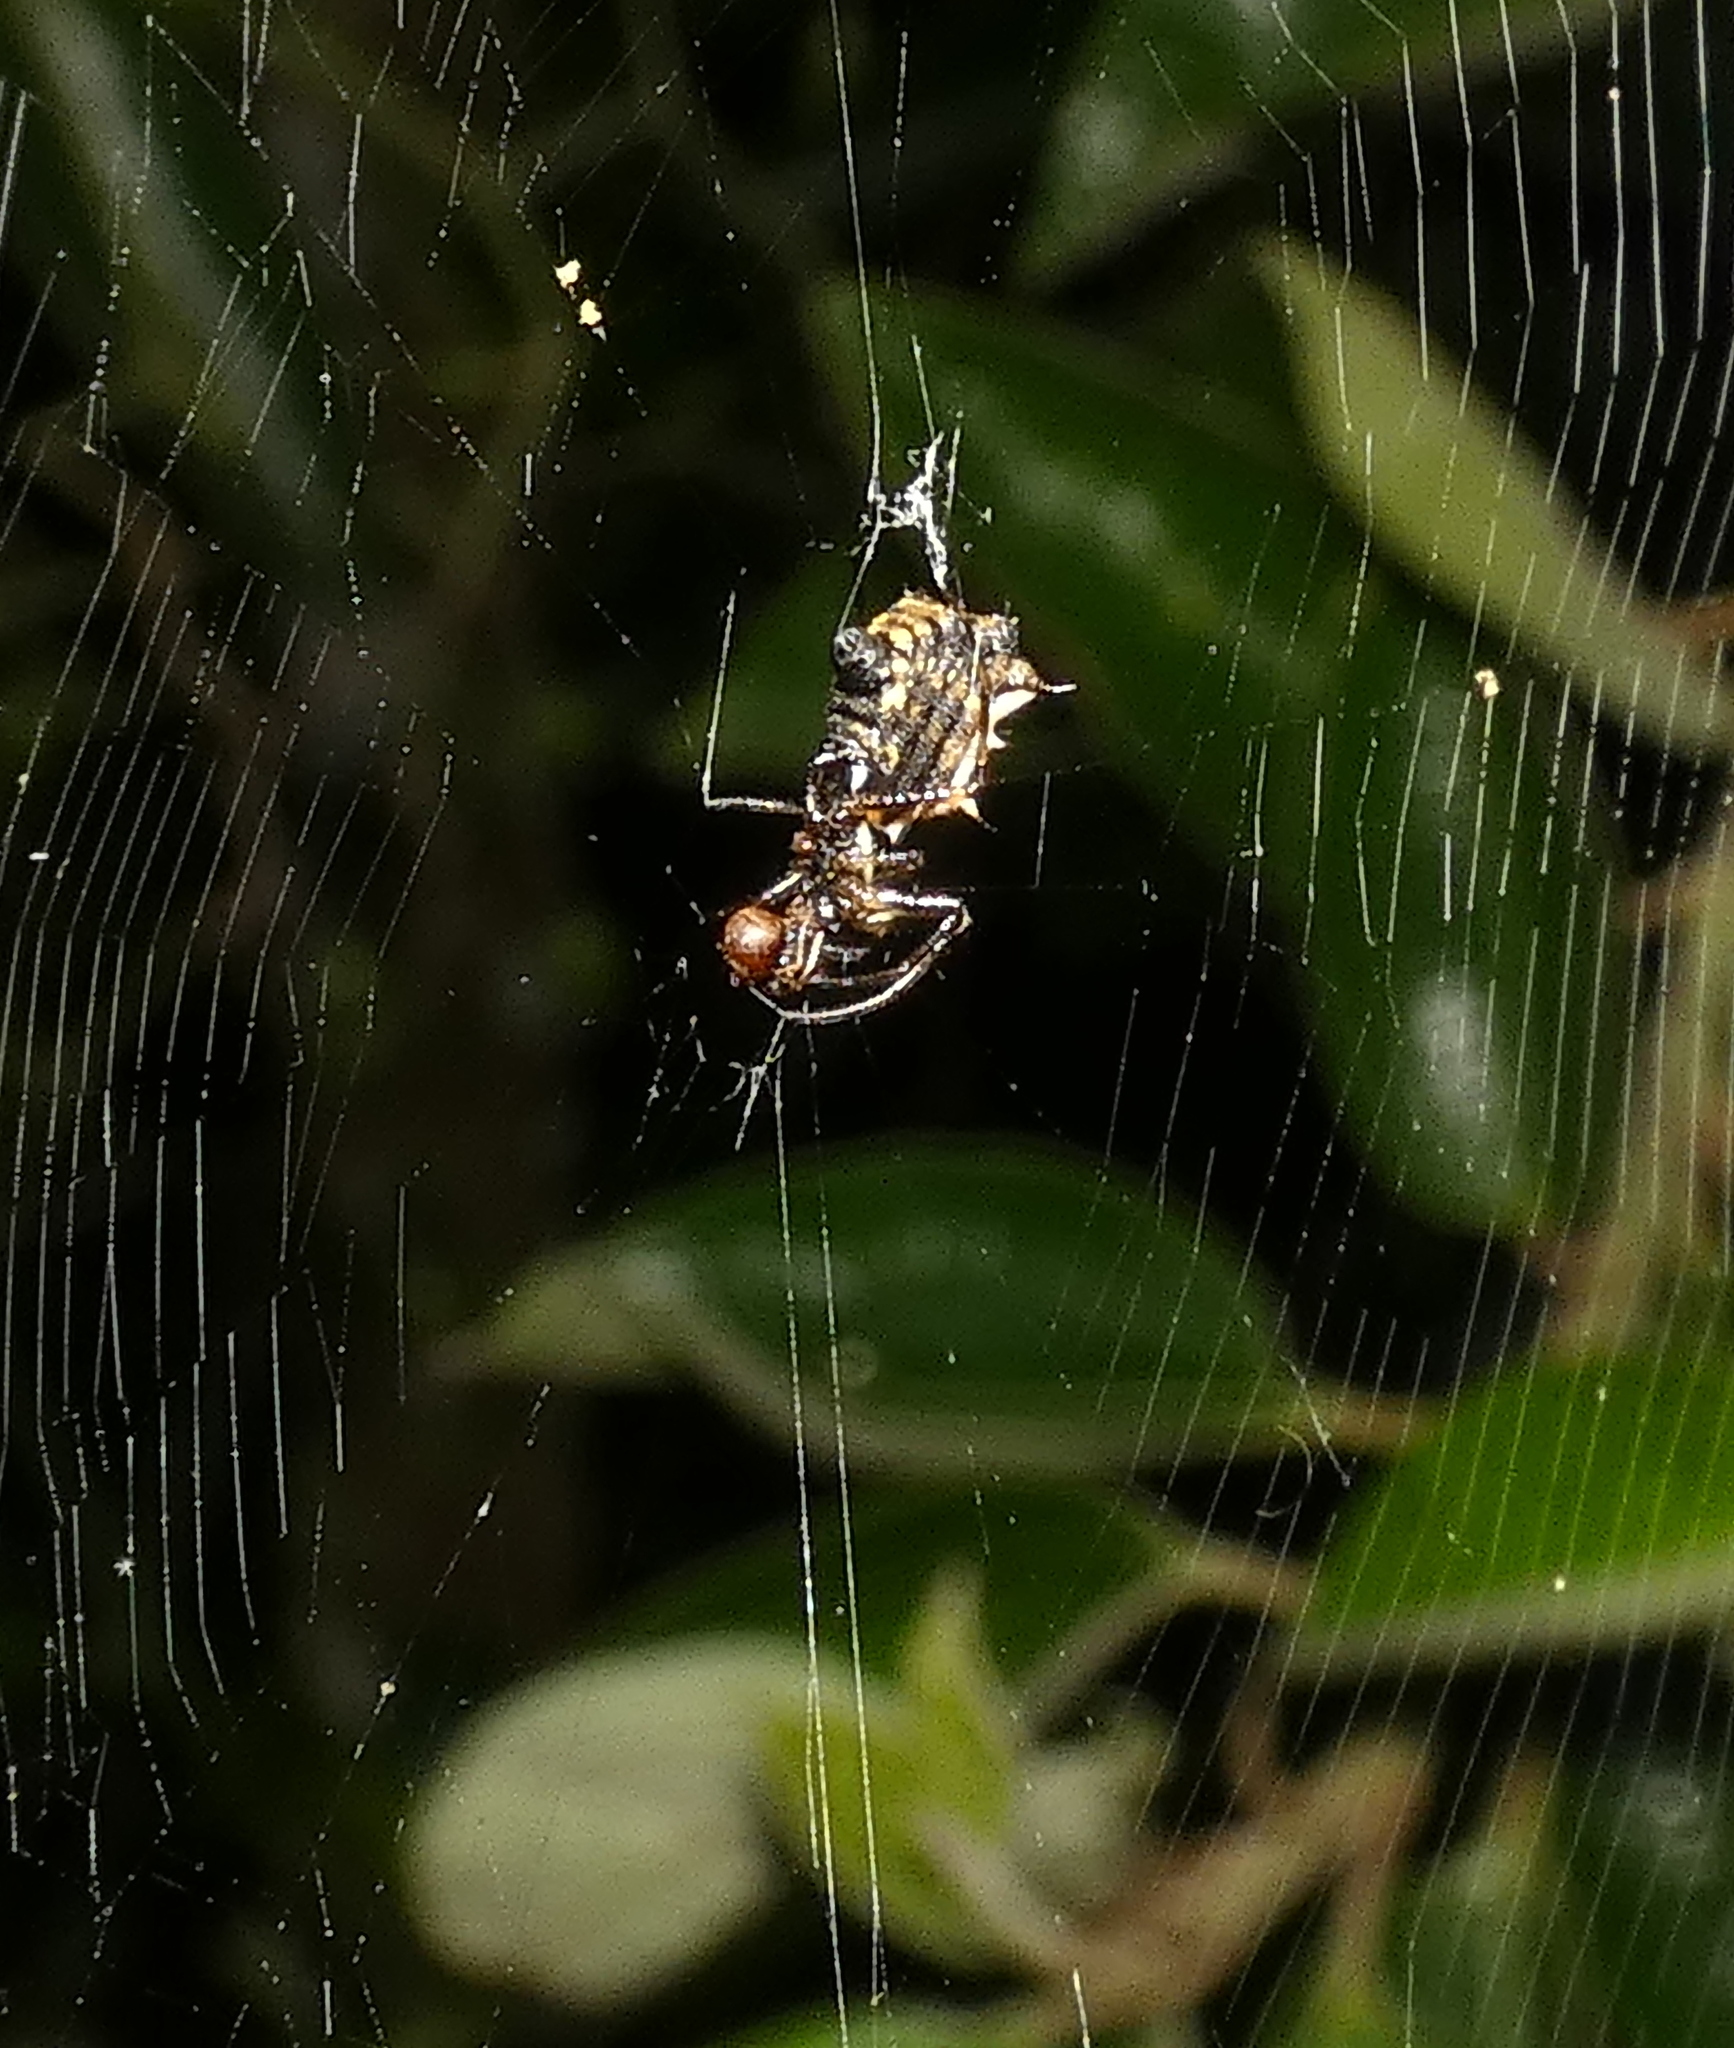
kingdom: Animalia
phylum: Arthropoda
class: Arachnida
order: Araneae
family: Araneidae
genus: Micrathena
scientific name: Micrathena picta
